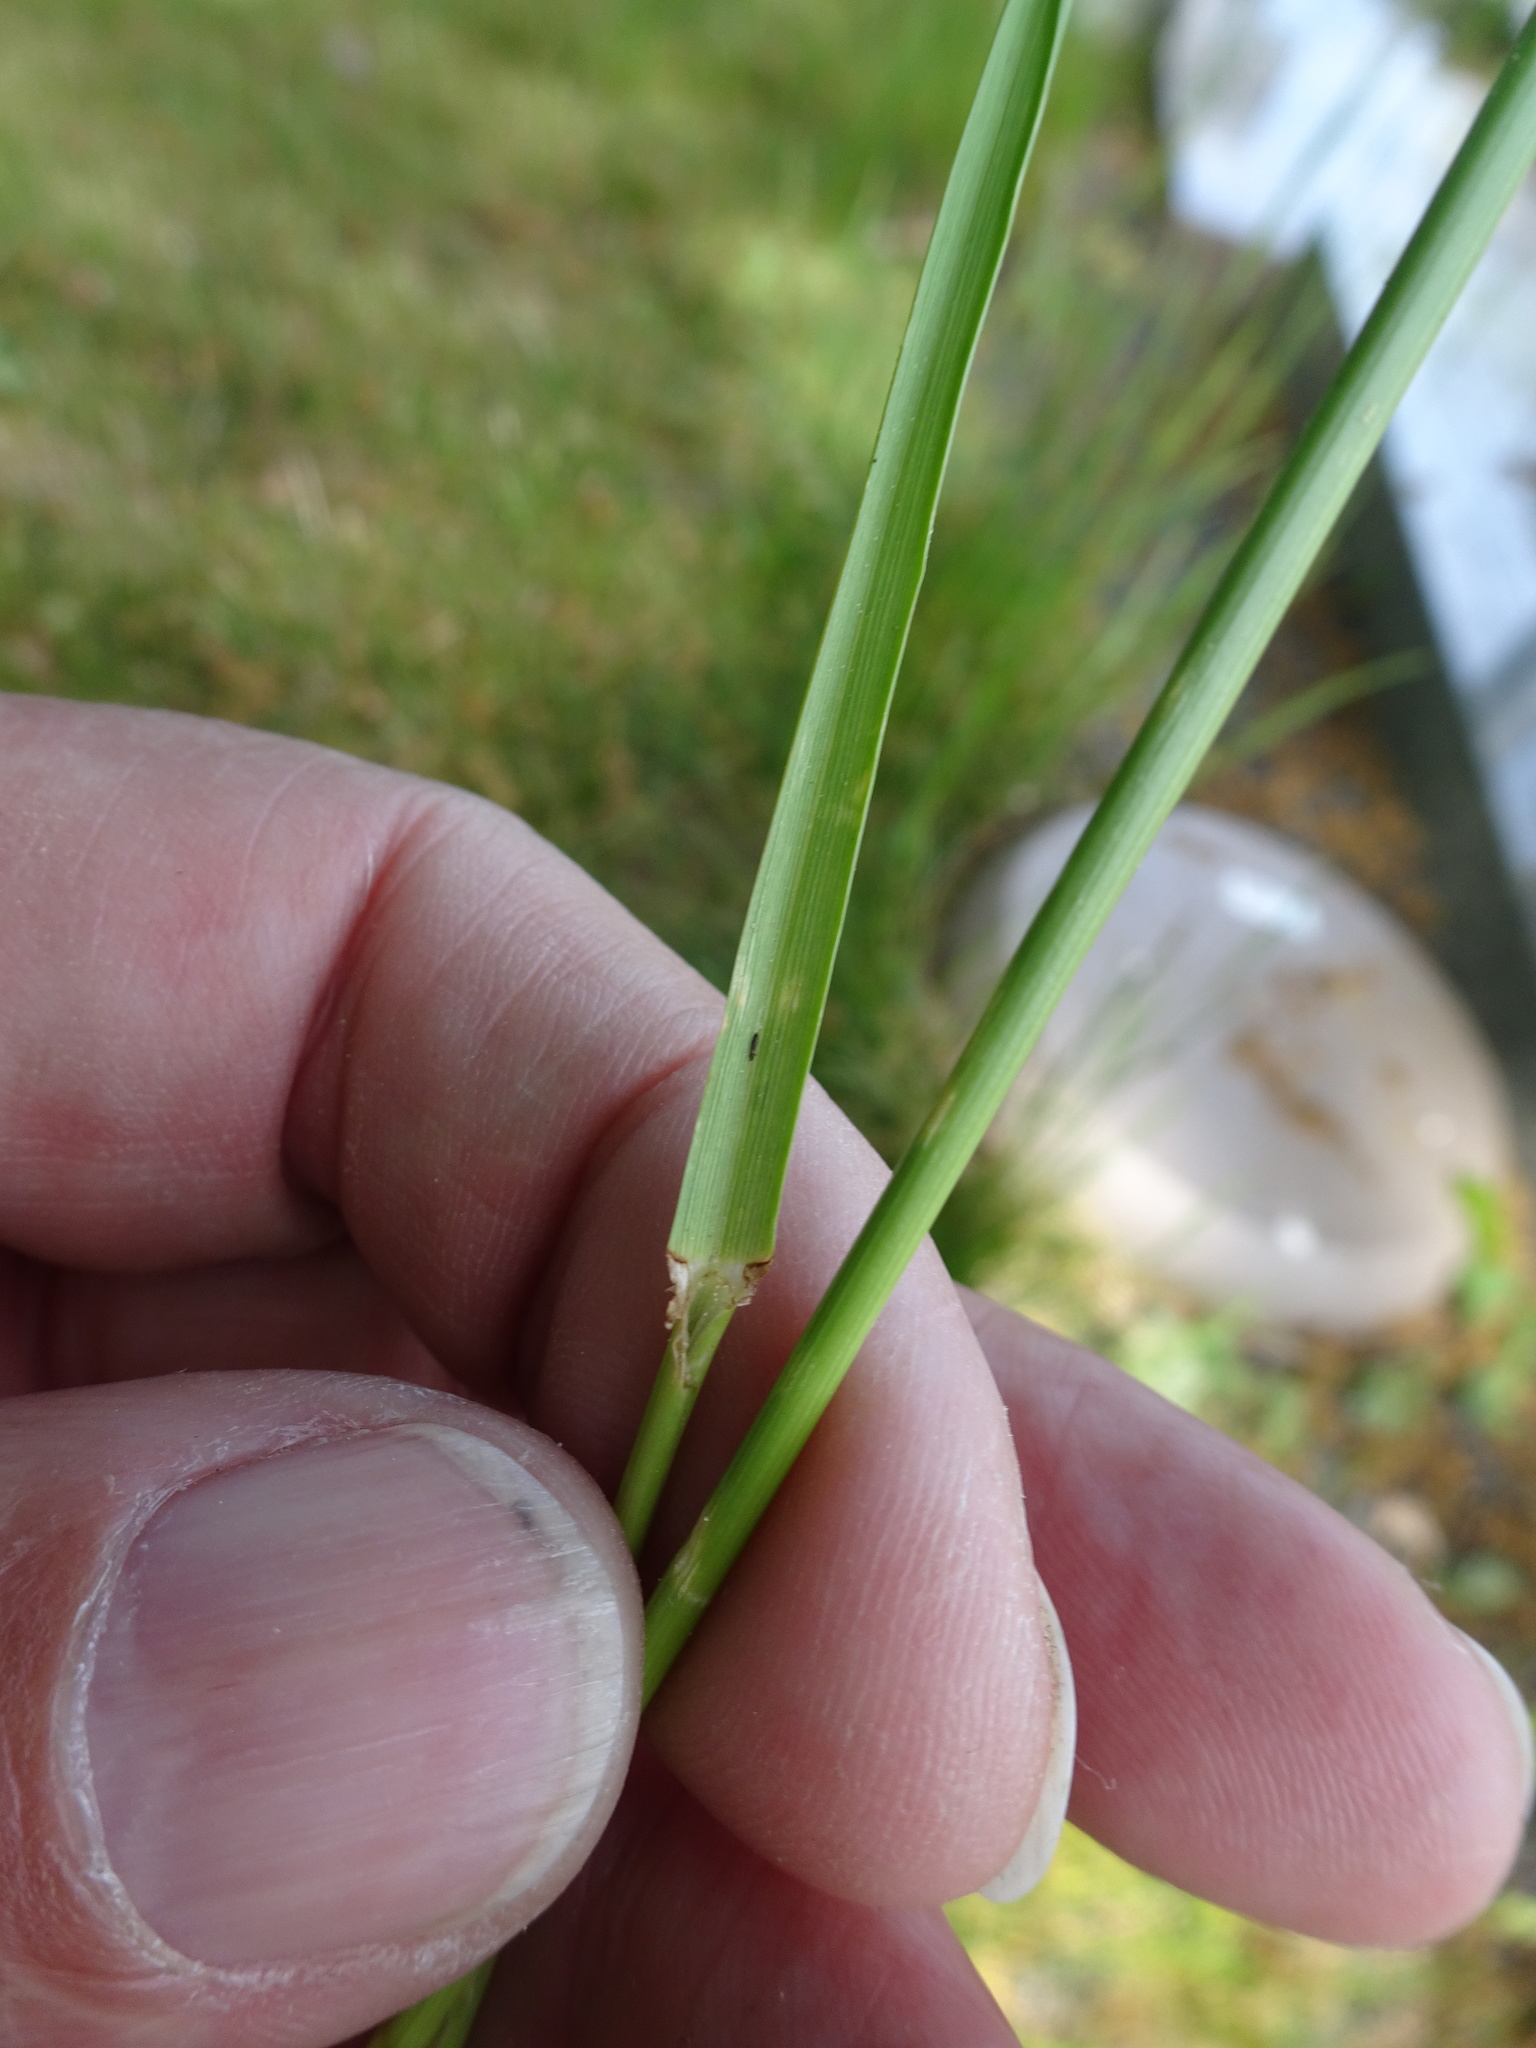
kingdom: Plantae
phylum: Tracheophyta
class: Liliopsida
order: Poales
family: Poaceae
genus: Lolium
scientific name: Lolium perenne
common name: Perennial ryegrass
